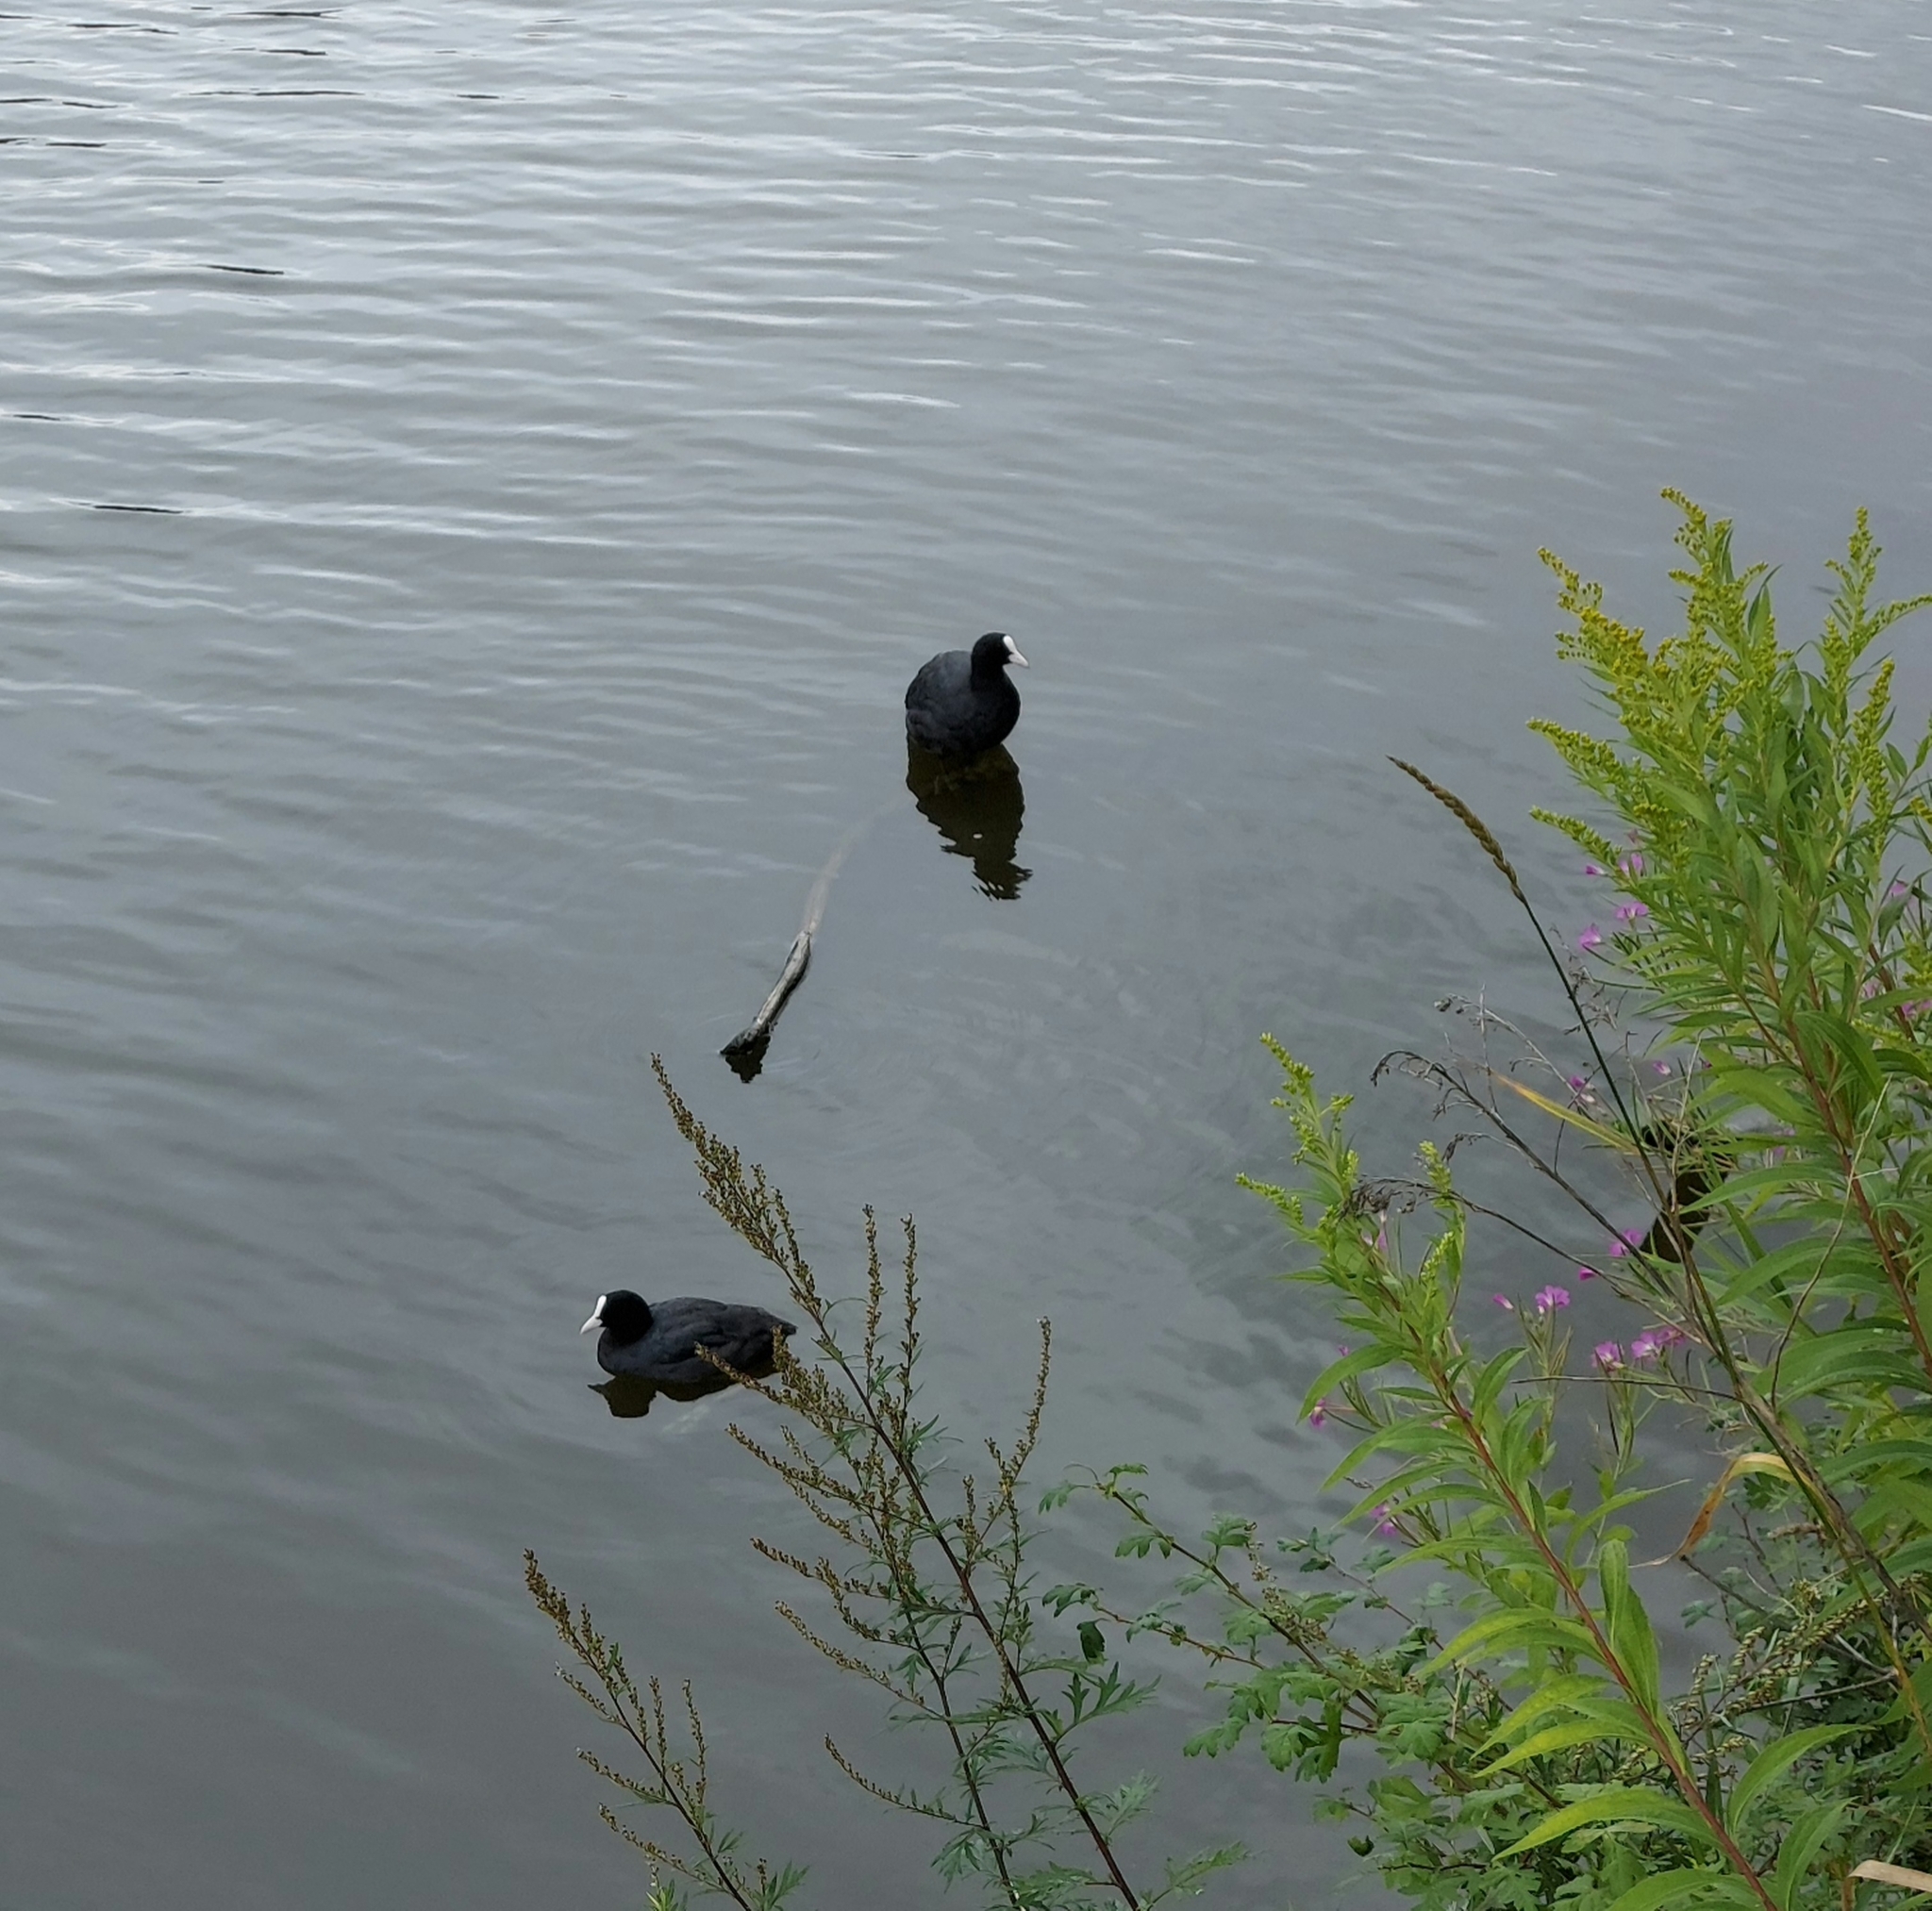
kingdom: Animalia
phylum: Chordata
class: Aves
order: Gruiformes
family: Rallidae
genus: Fulica
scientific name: Fulica atra
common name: Eurasian coot
